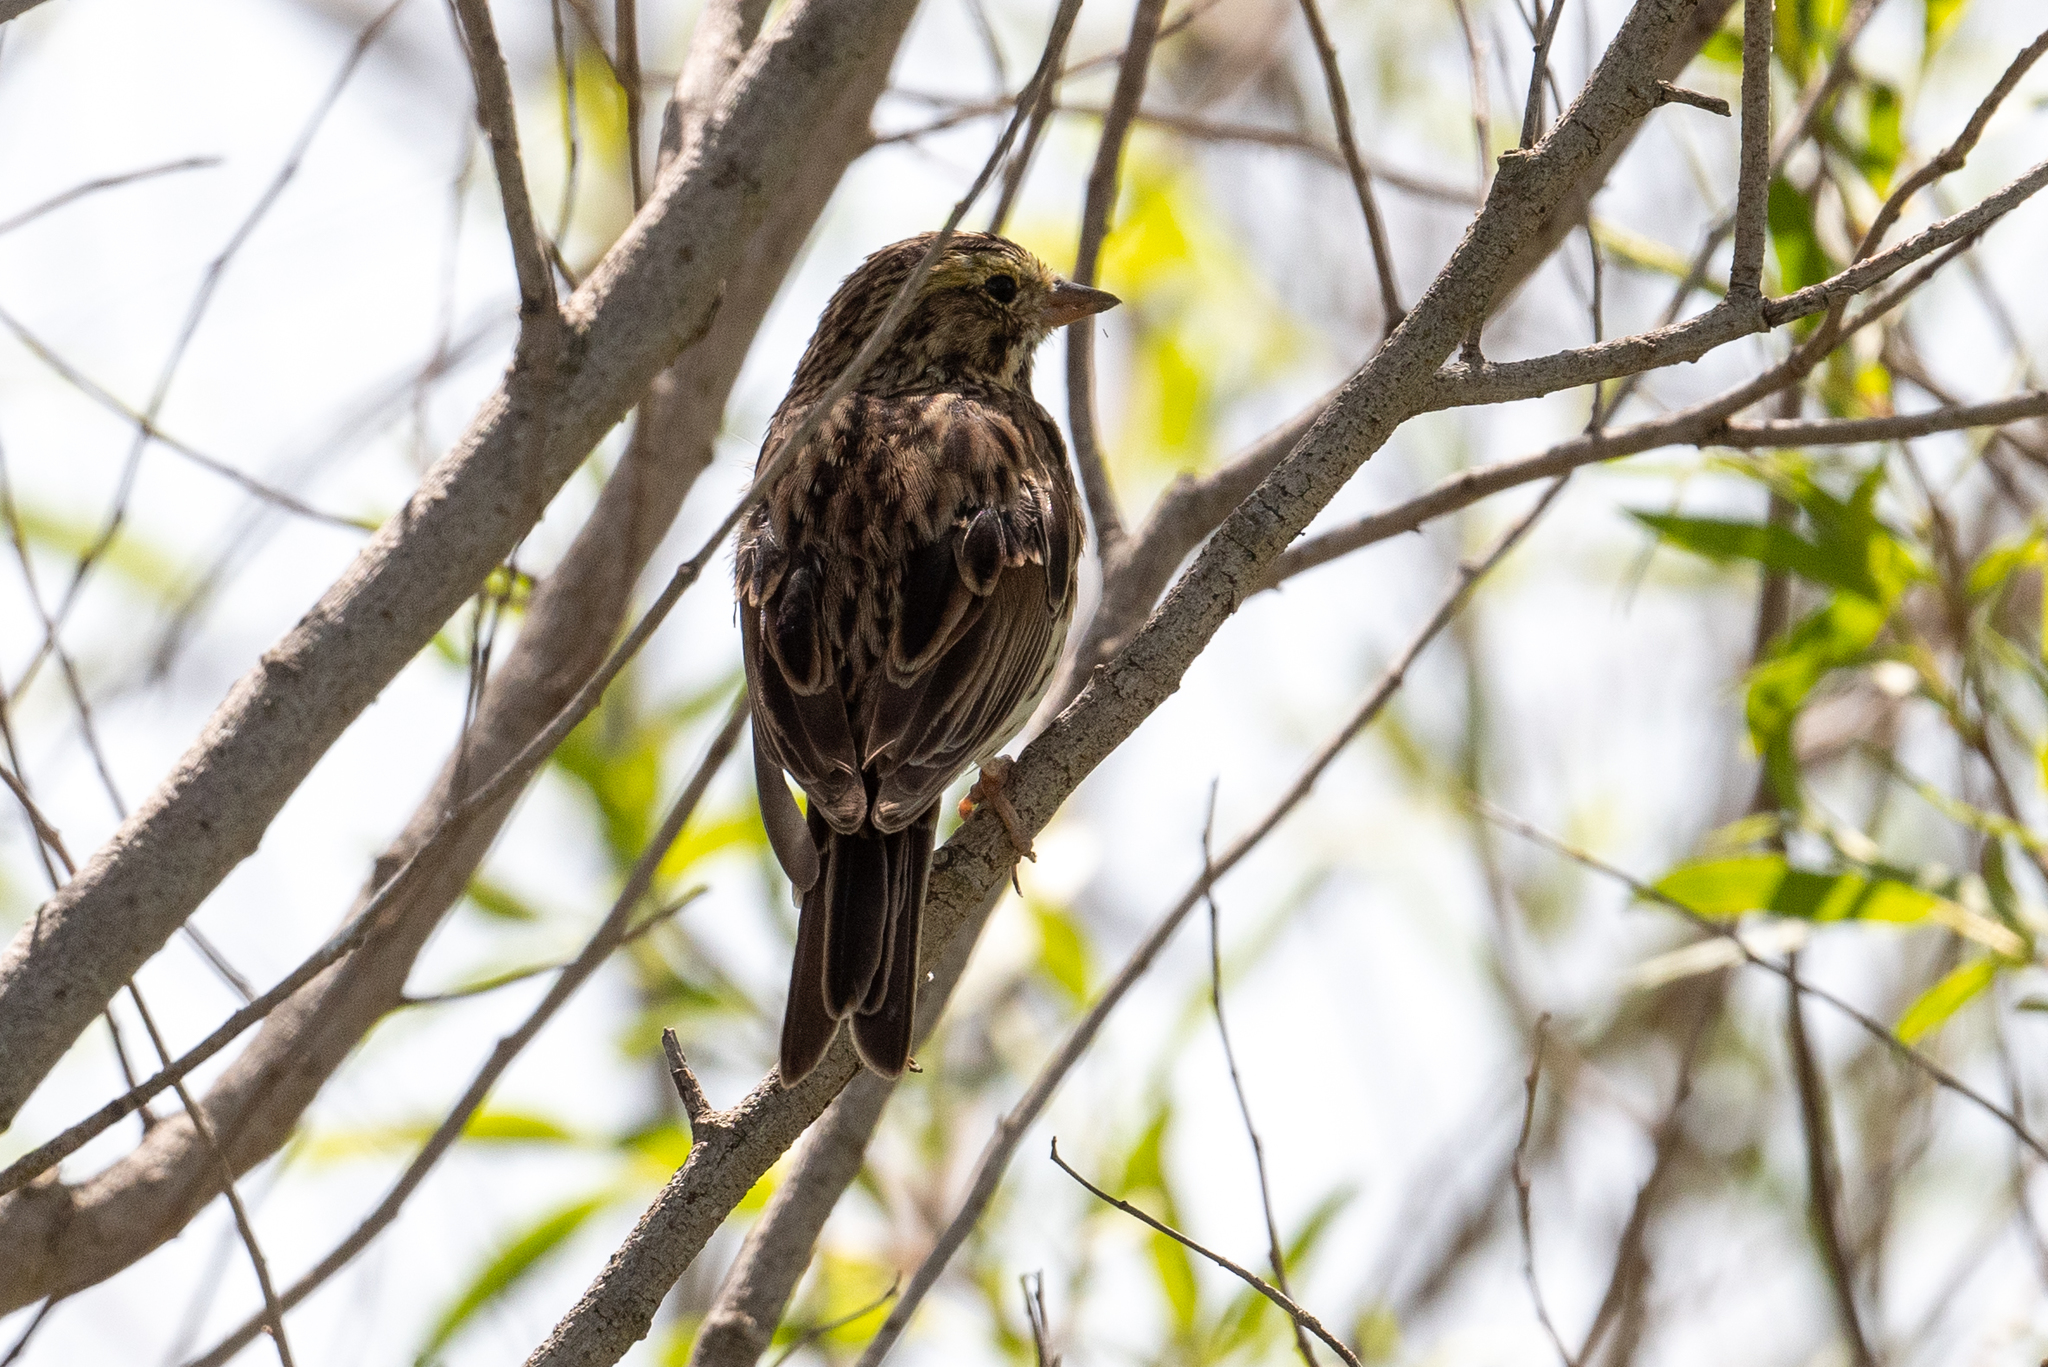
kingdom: Animalia
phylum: Chordata
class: Aves
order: Passeriformes
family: Passerellidae
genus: Passerculus
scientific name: Passerculus sandwichensis
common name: Savannah sparrow
